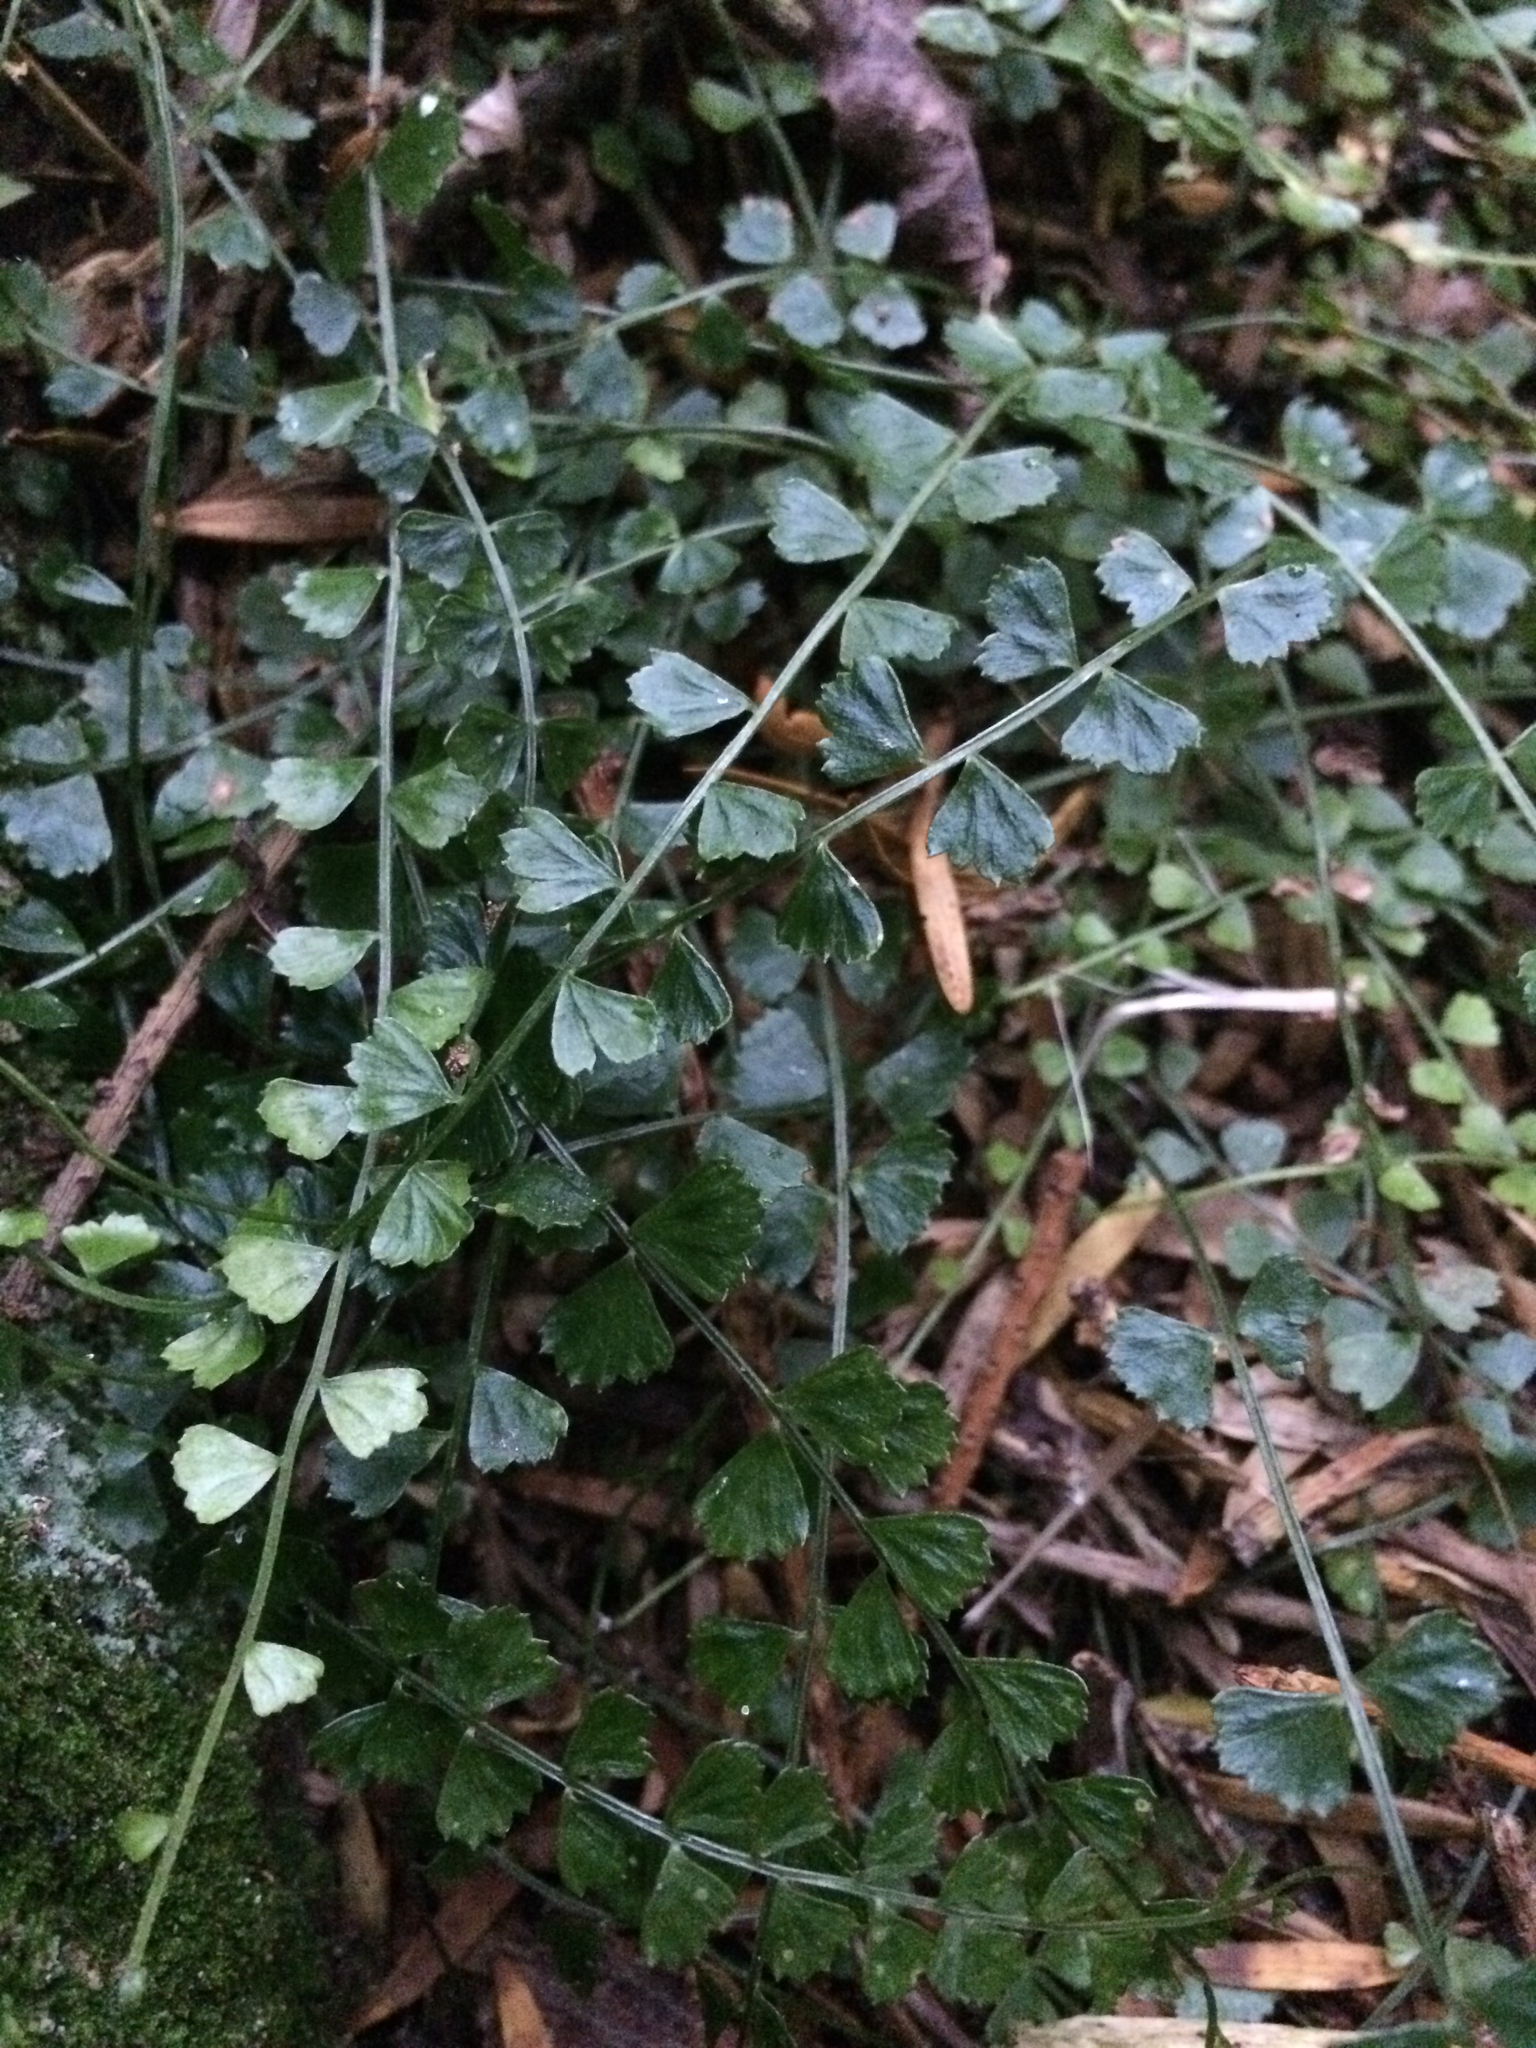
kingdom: Plantae
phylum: Tracheophyta
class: Polypodiopsida
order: Polypodiales
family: Aspleniaceae
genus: Asplenium
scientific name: Asplenium flabellifolium
